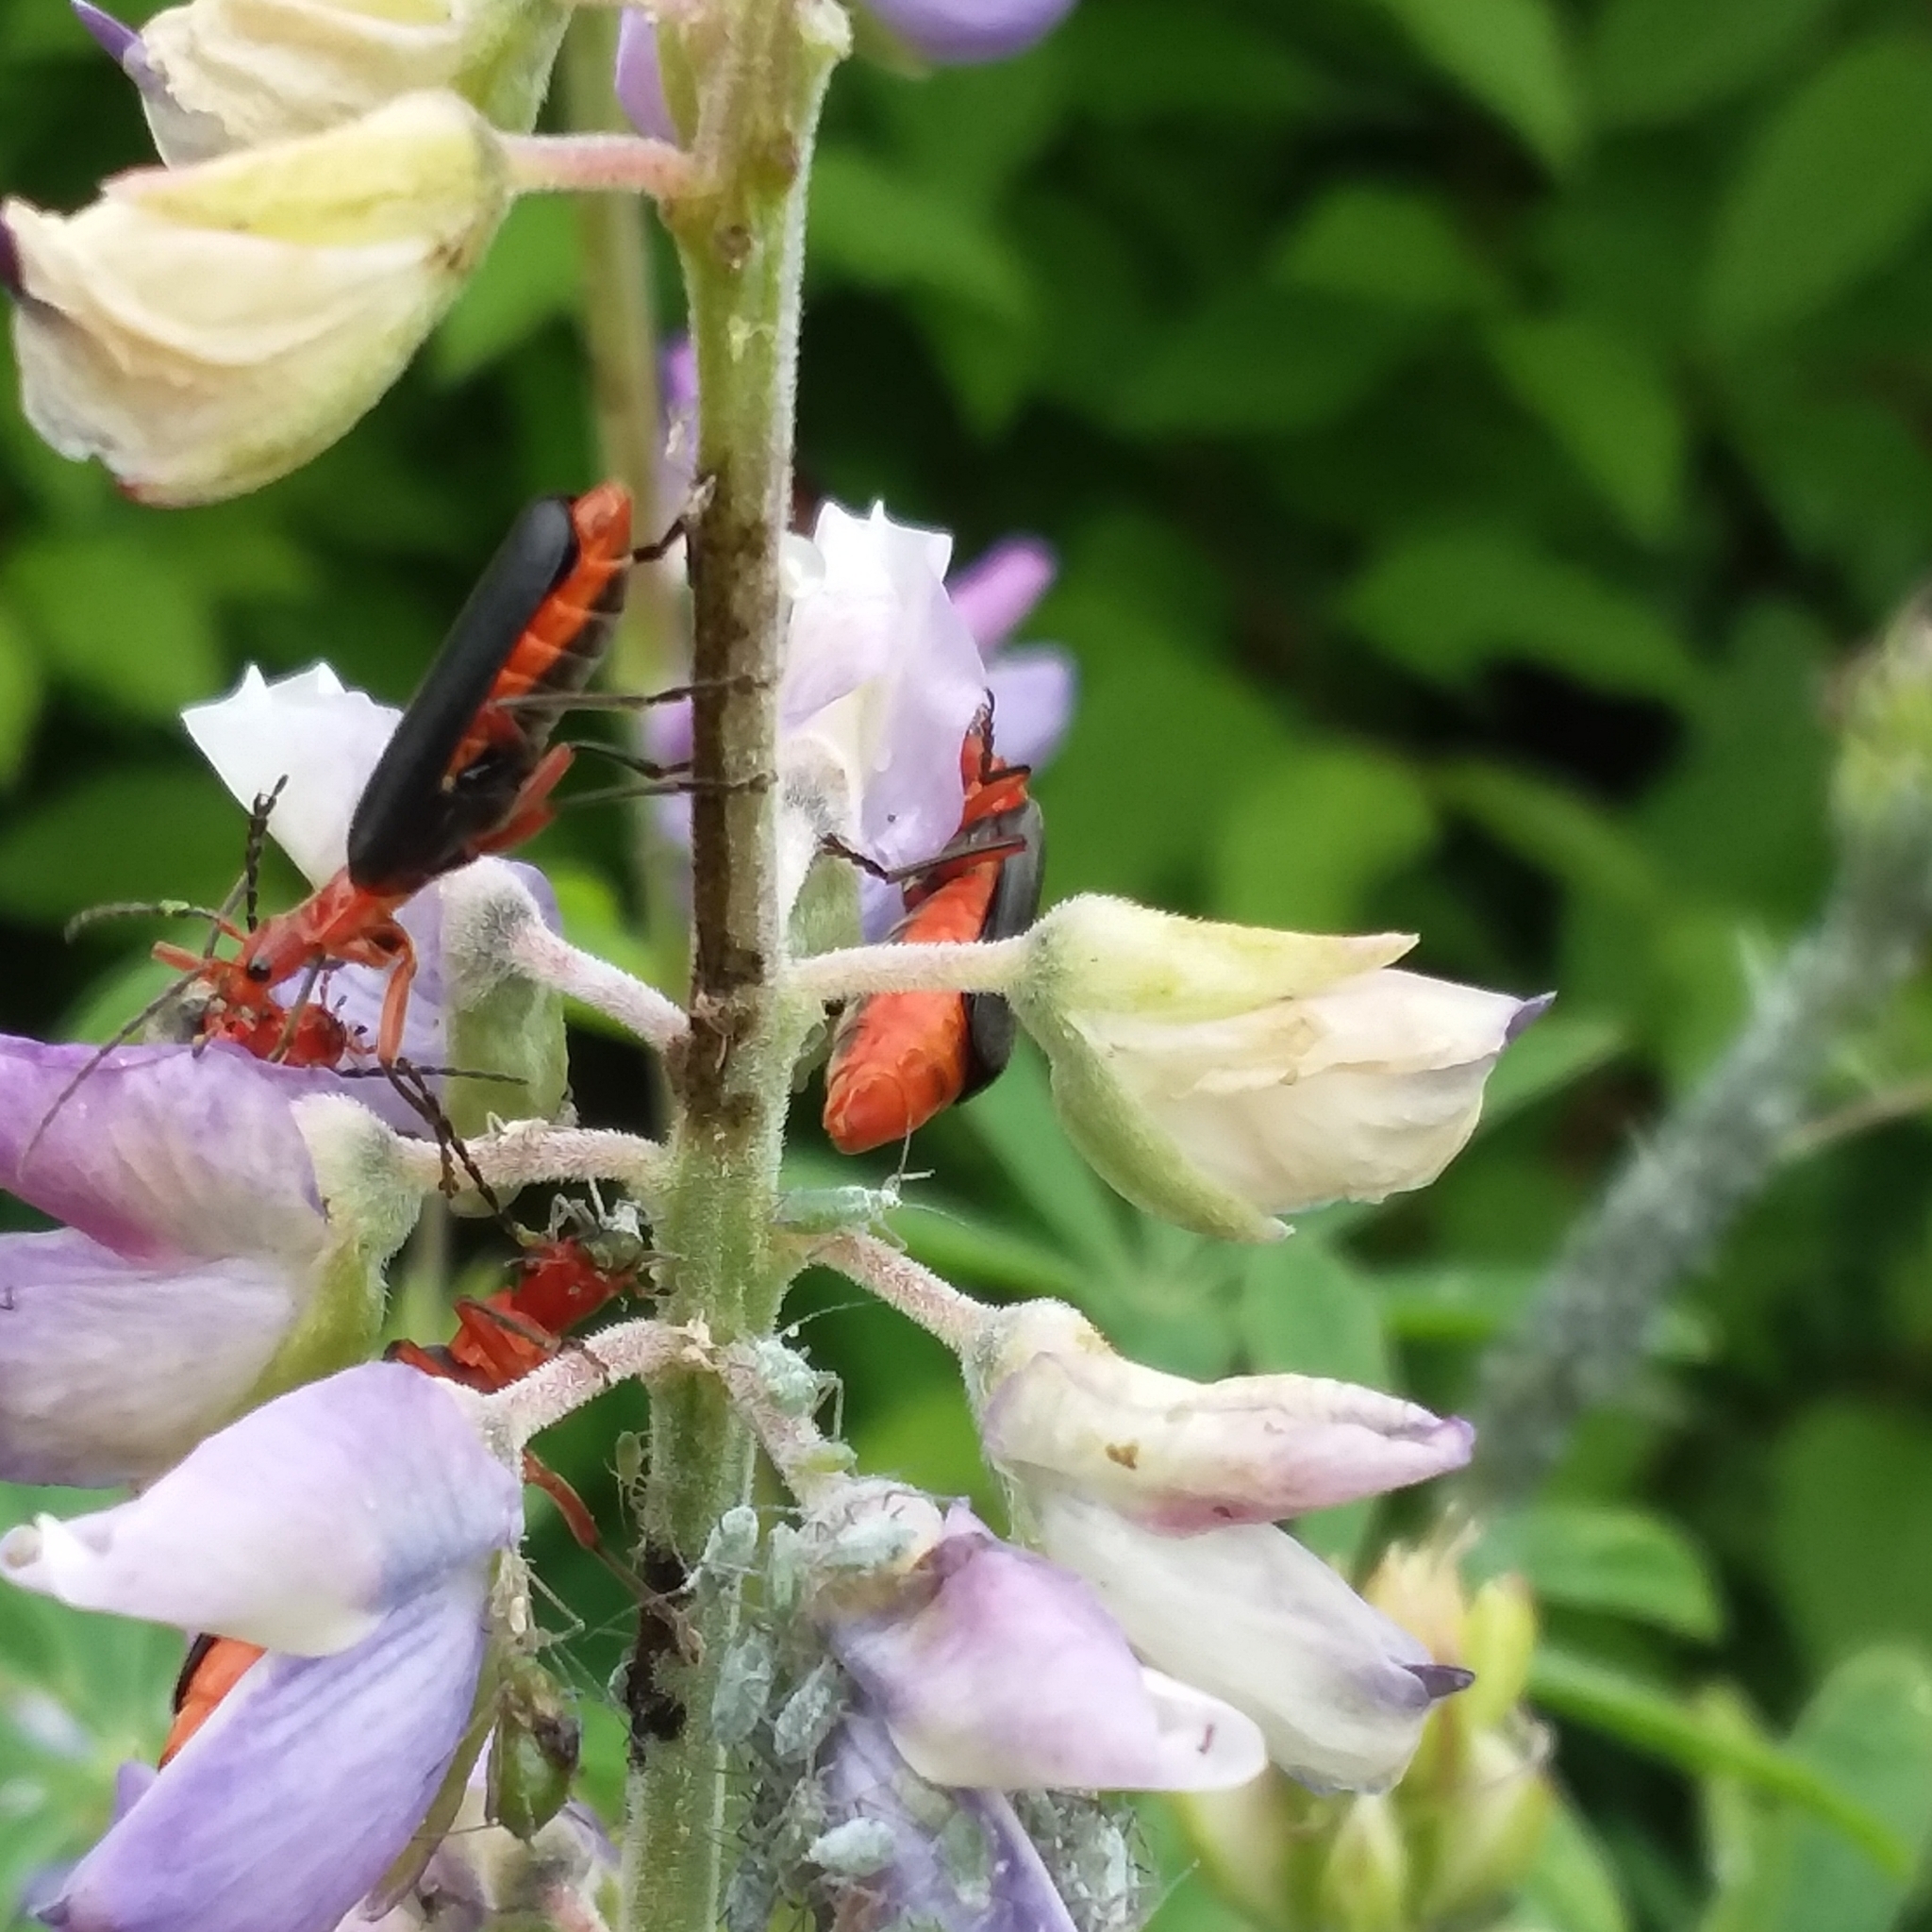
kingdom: Animalia
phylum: Arthropoda
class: Insecta
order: Coleoptera
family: Cantharidae
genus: Podabrus
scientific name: Podabrus pruinosus
